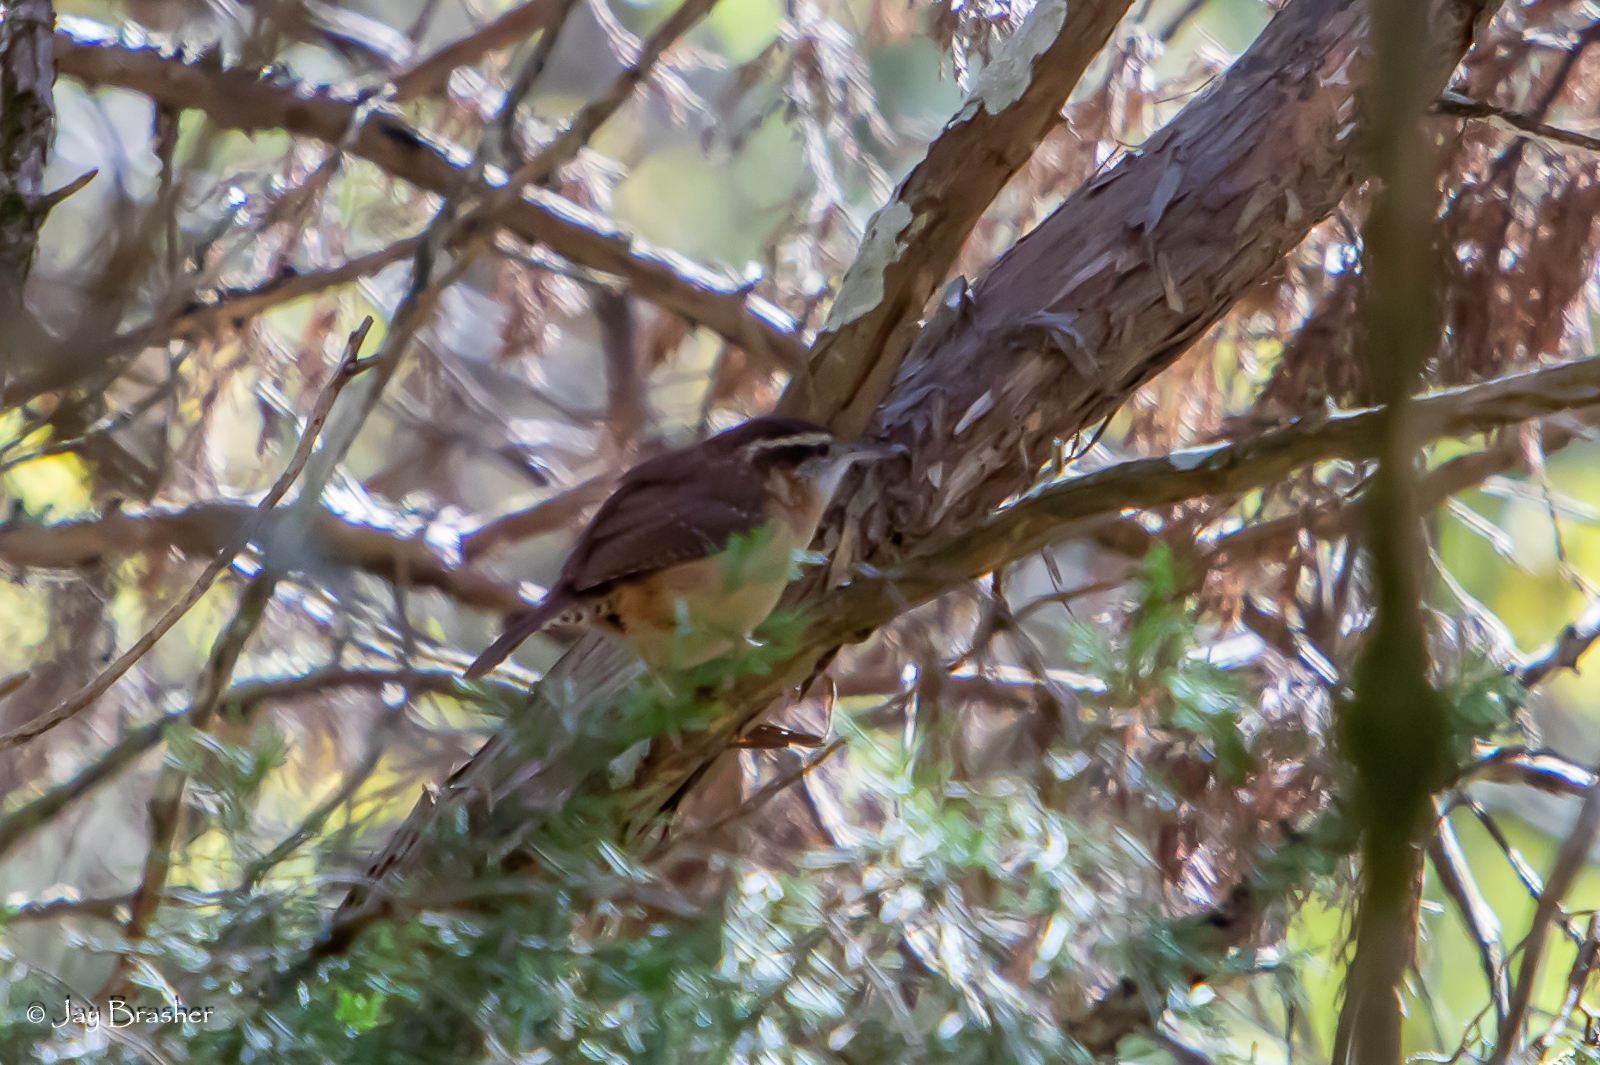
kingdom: Animalia
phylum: Chordata
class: Aves
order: Passeriformes
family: Troglodytidae
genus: Thryothorus
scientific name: Thryothorus ludovicianus
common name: Carolina wren
